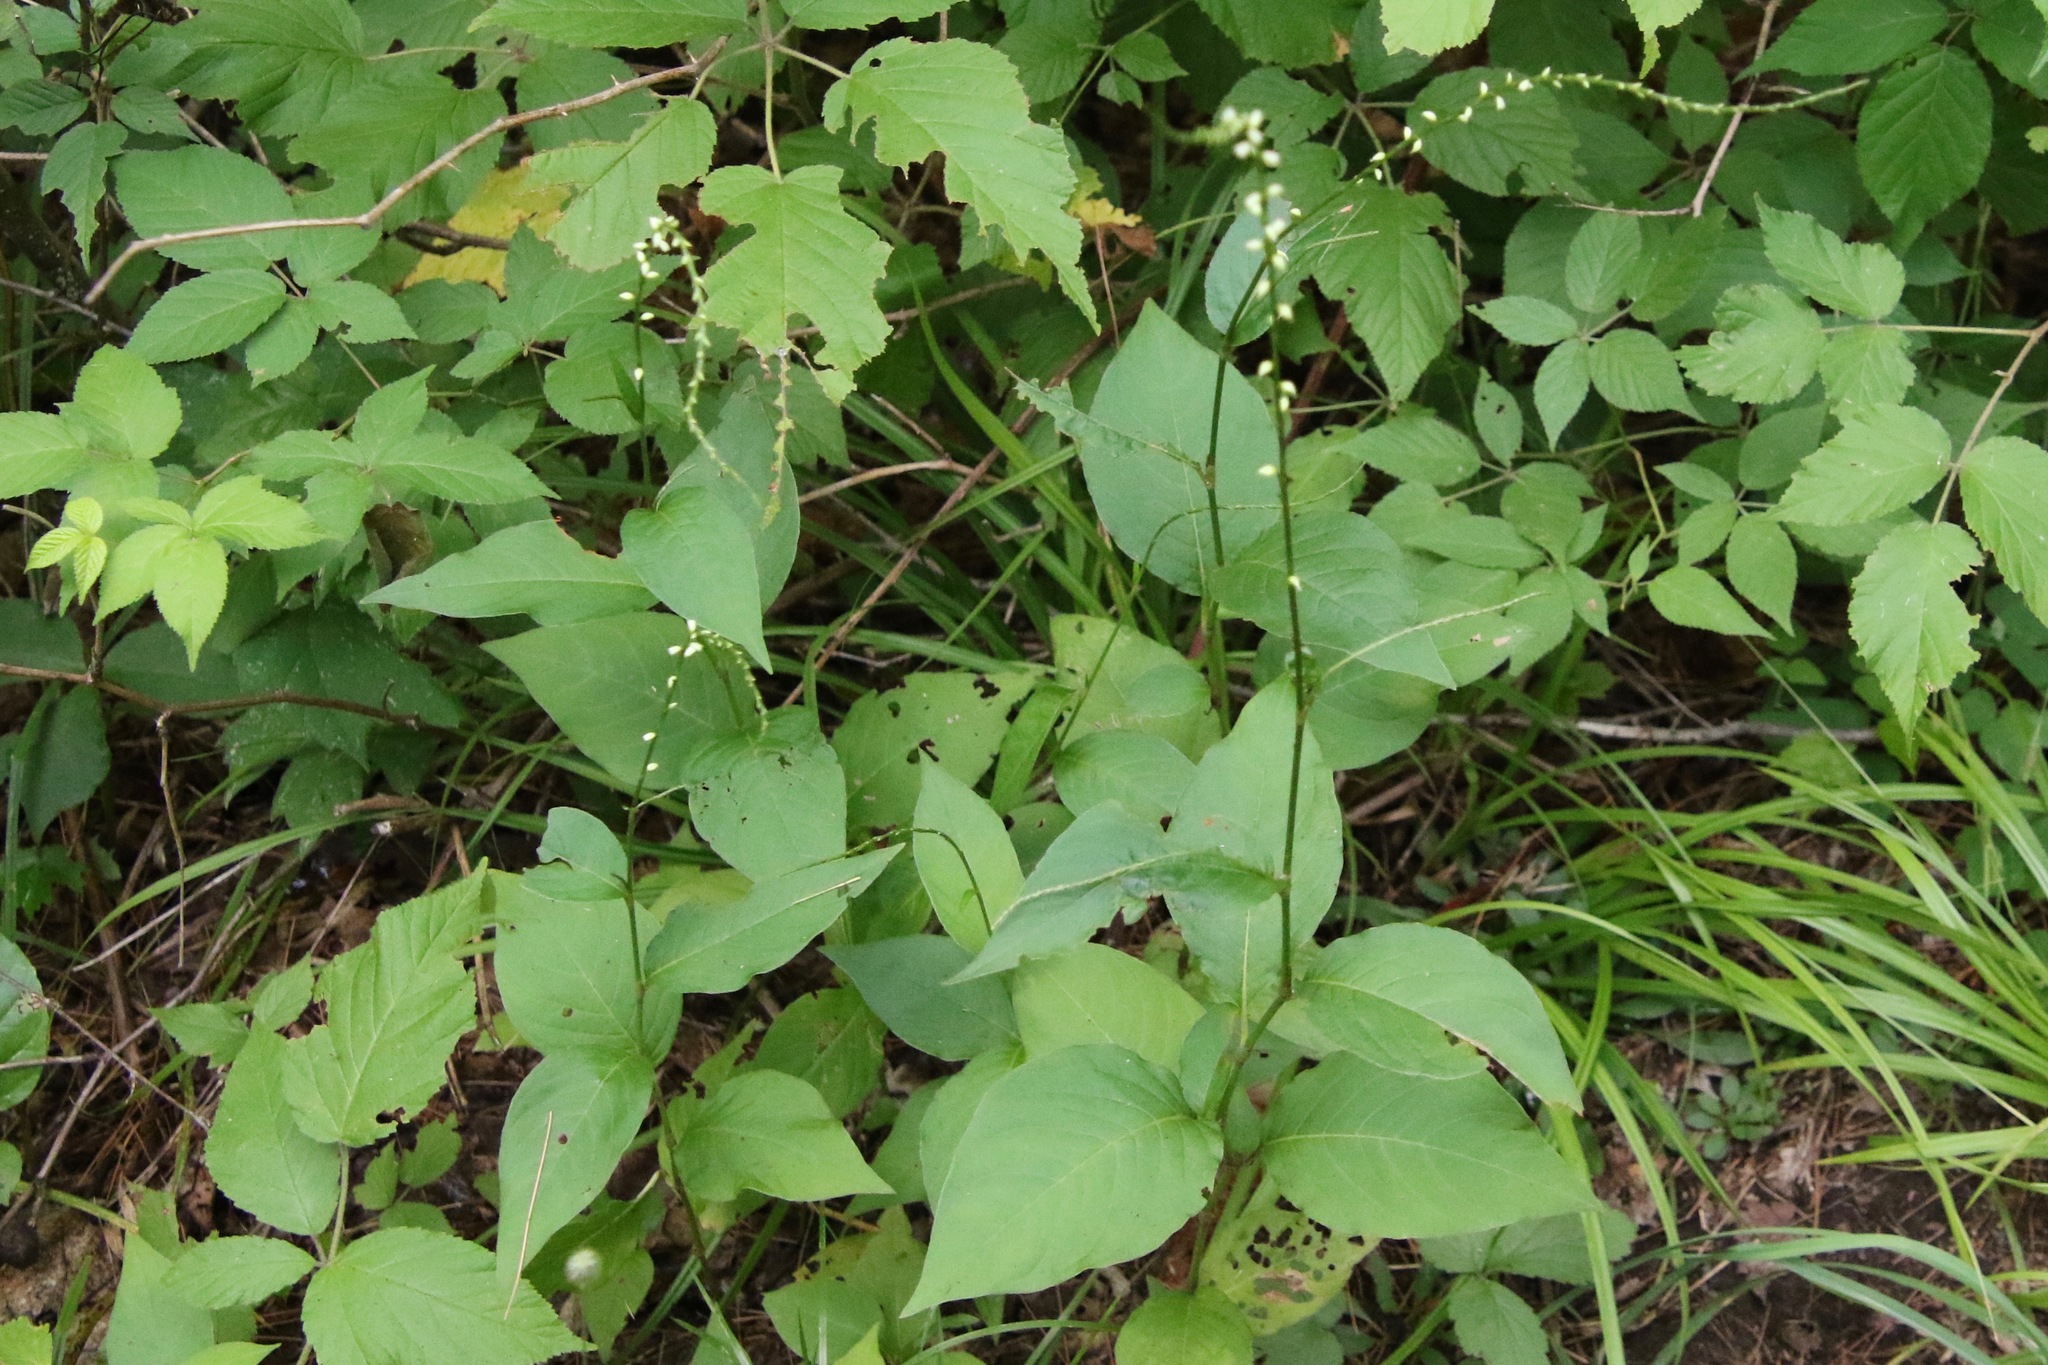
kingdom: Plantae
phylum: Tracheophyta
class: Magnoliopsida
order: Caryophyllales
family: Polygonaceae
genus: Persicaria
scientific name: Persicaria virginiana
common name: Jumpseed
